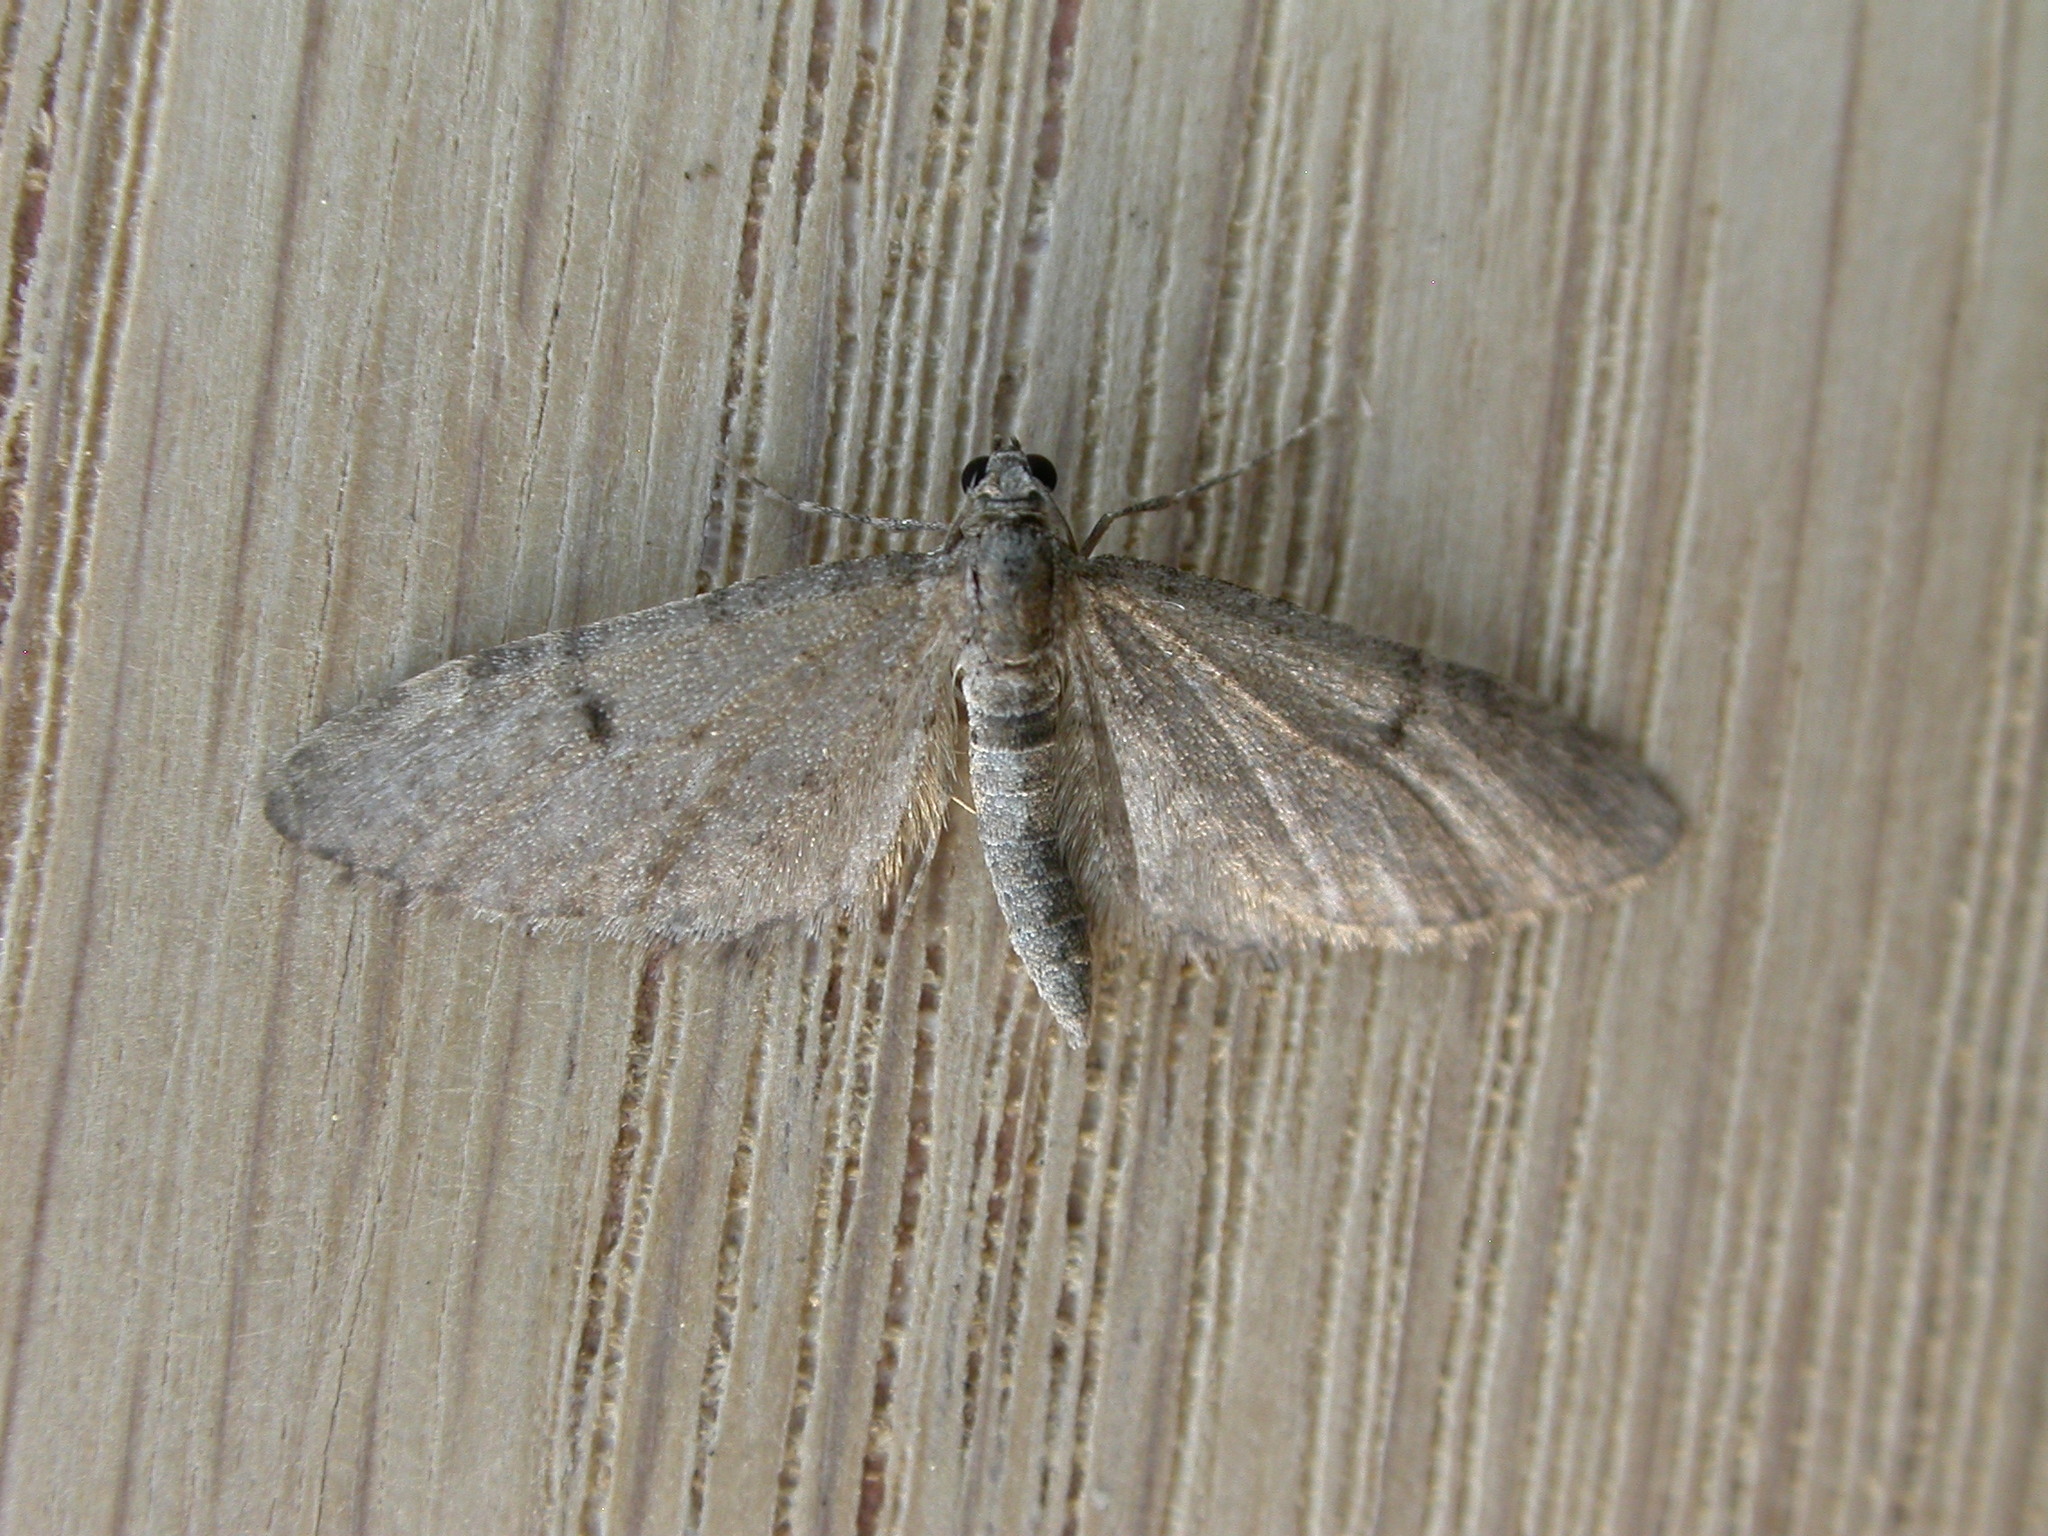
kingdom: Animalia
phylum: Arthropoda
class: Insecta
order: Lepidoptera
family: Geometridae
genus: Eupithecia
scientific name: Eupithecia indigata
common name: Ochreous pug
